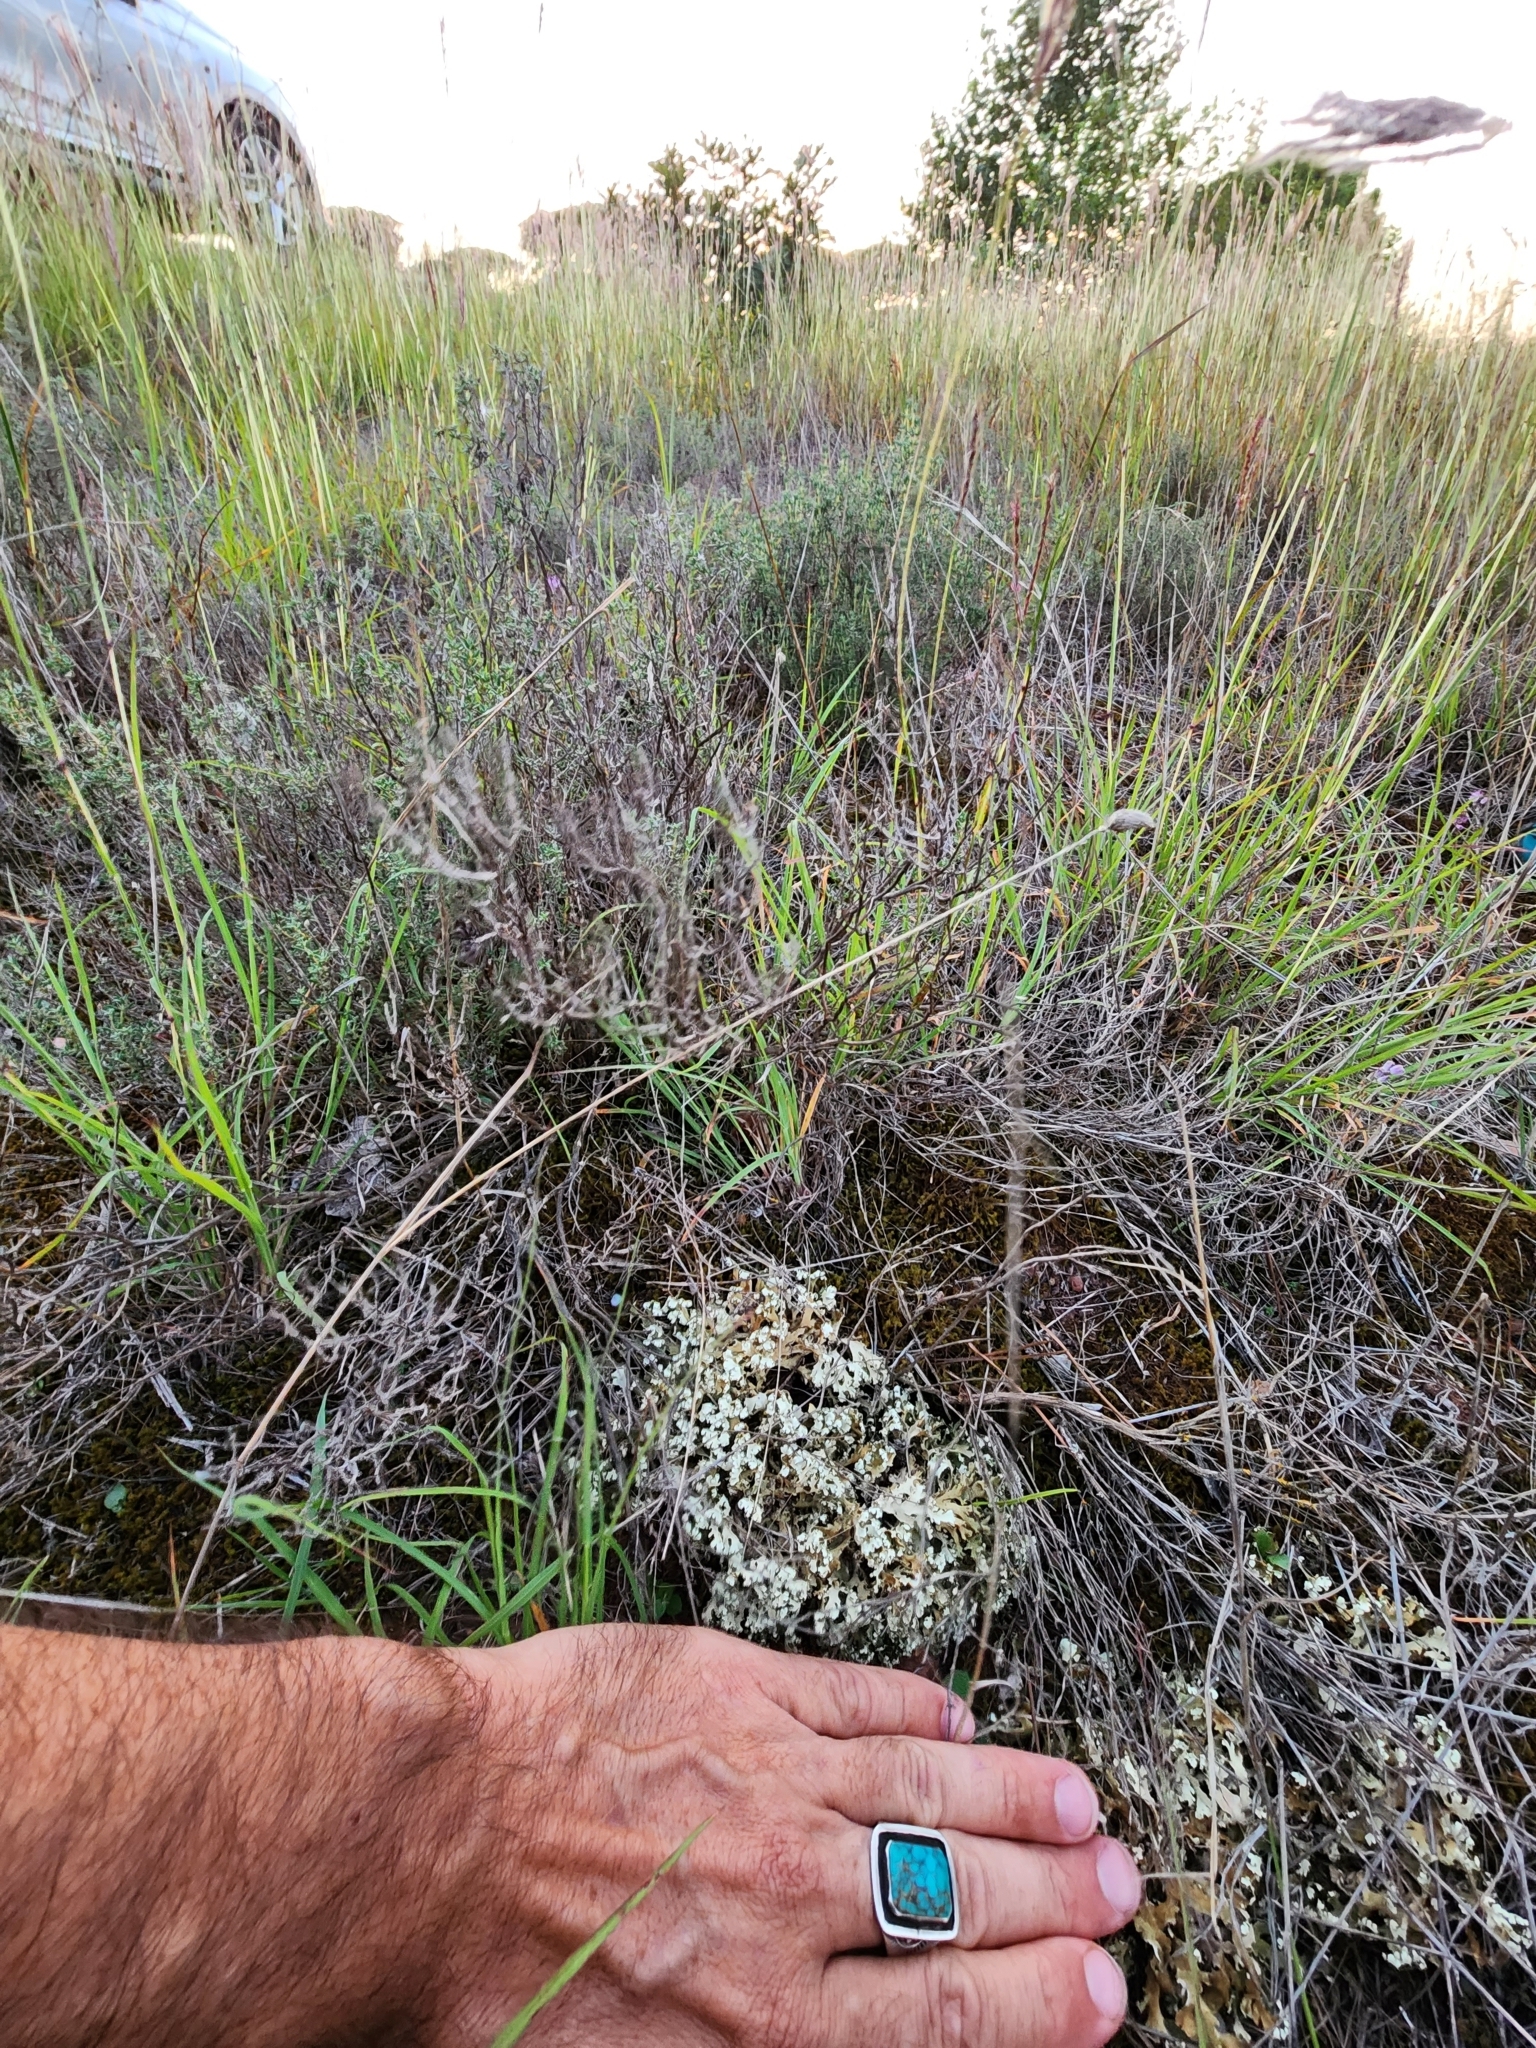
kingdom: Fungi
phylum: Ascomycota
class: Lecanoromycetes
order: Lecanorales
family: Cladoniaceae
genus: Cladonia
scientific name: Cladonia foliacea
